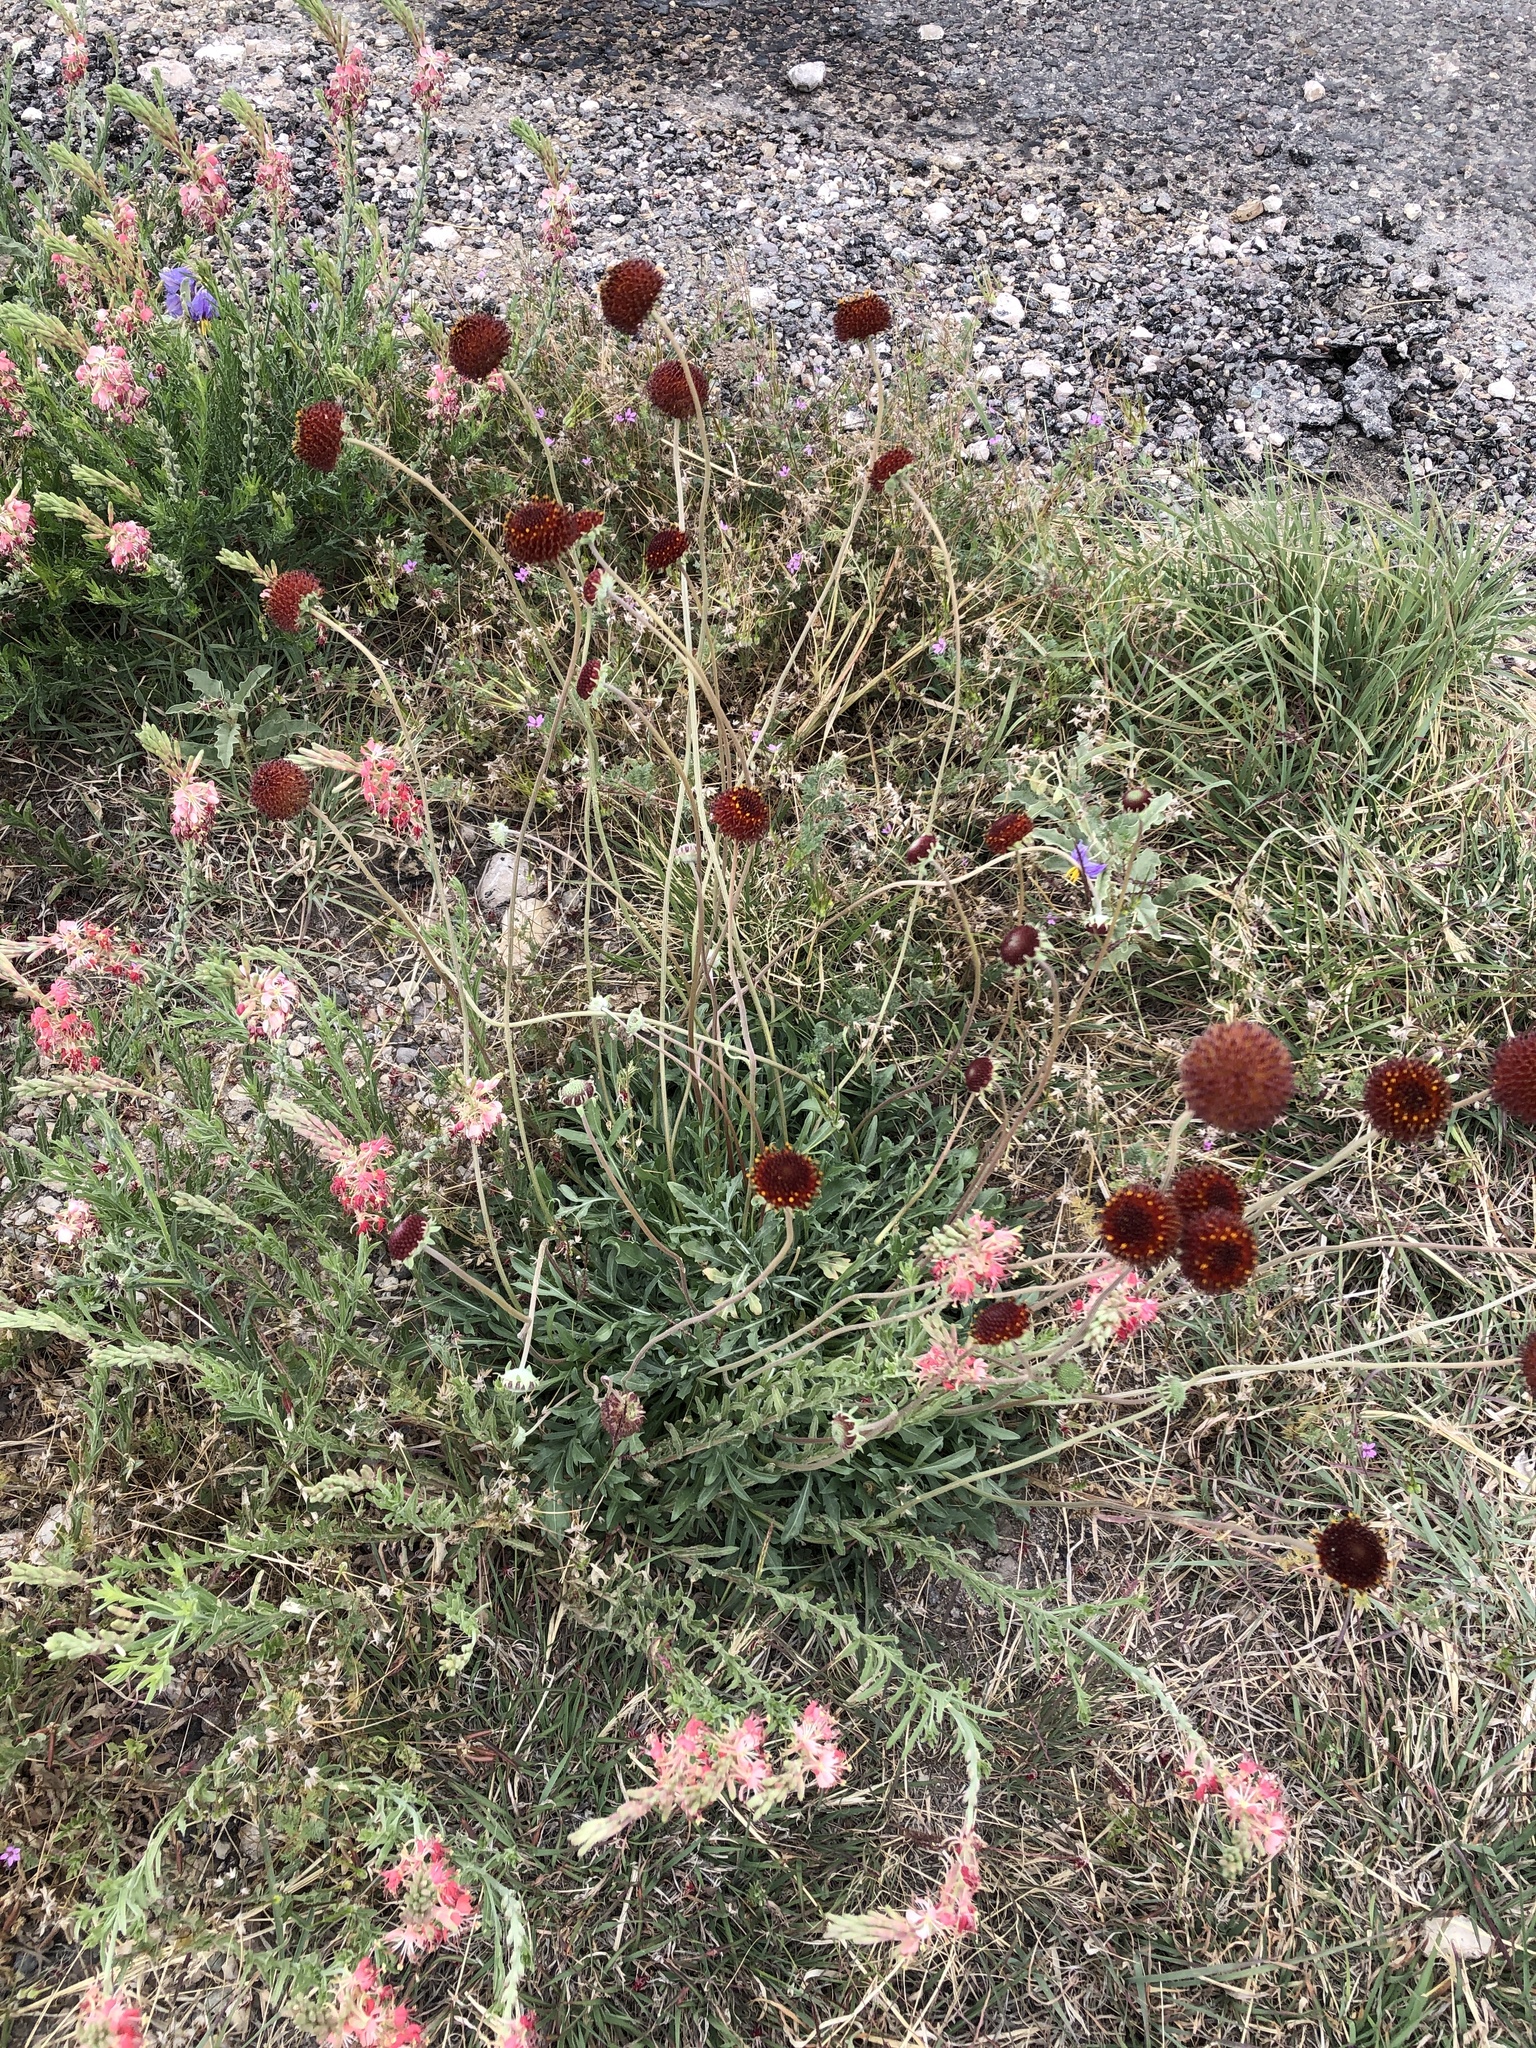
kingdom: Plantae
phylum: Tracheophyta
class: Magnoliopsida
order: Asterales
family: Asteraceae
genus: Gaillardia
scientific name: Gaillardia suavis
